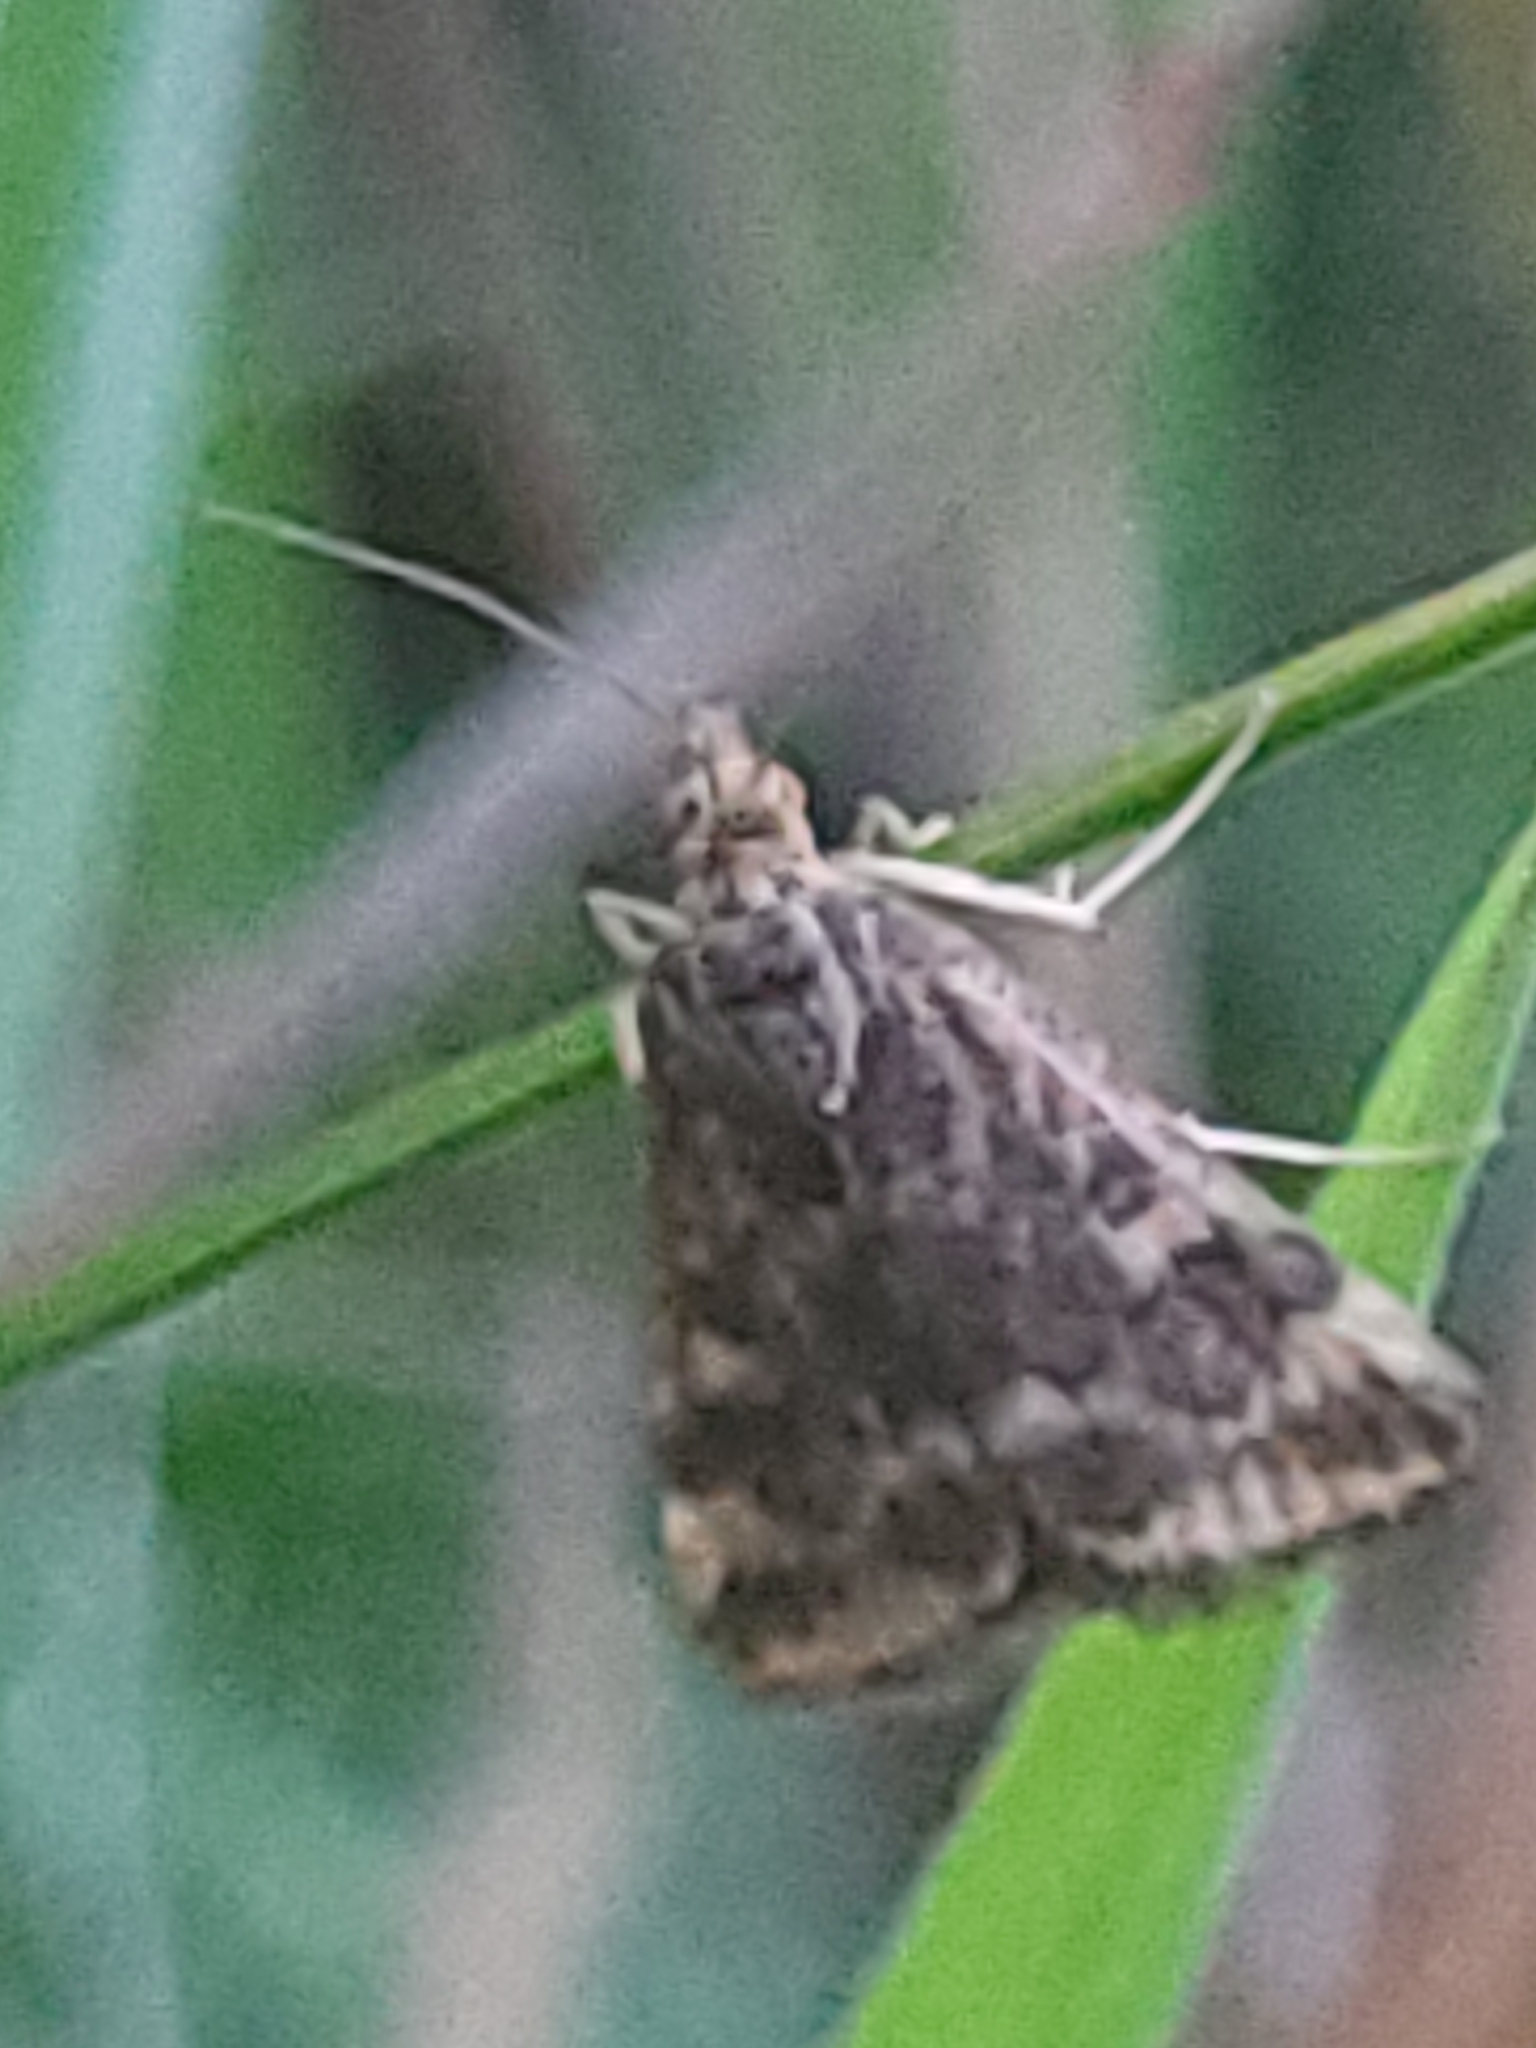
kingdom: Animalia
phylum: Arthropoda
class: Insecta
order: Lepidoptera
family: Crambidae
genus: Pyrausta
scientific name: Pyrausta despicata
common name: Straw-barred pearl
